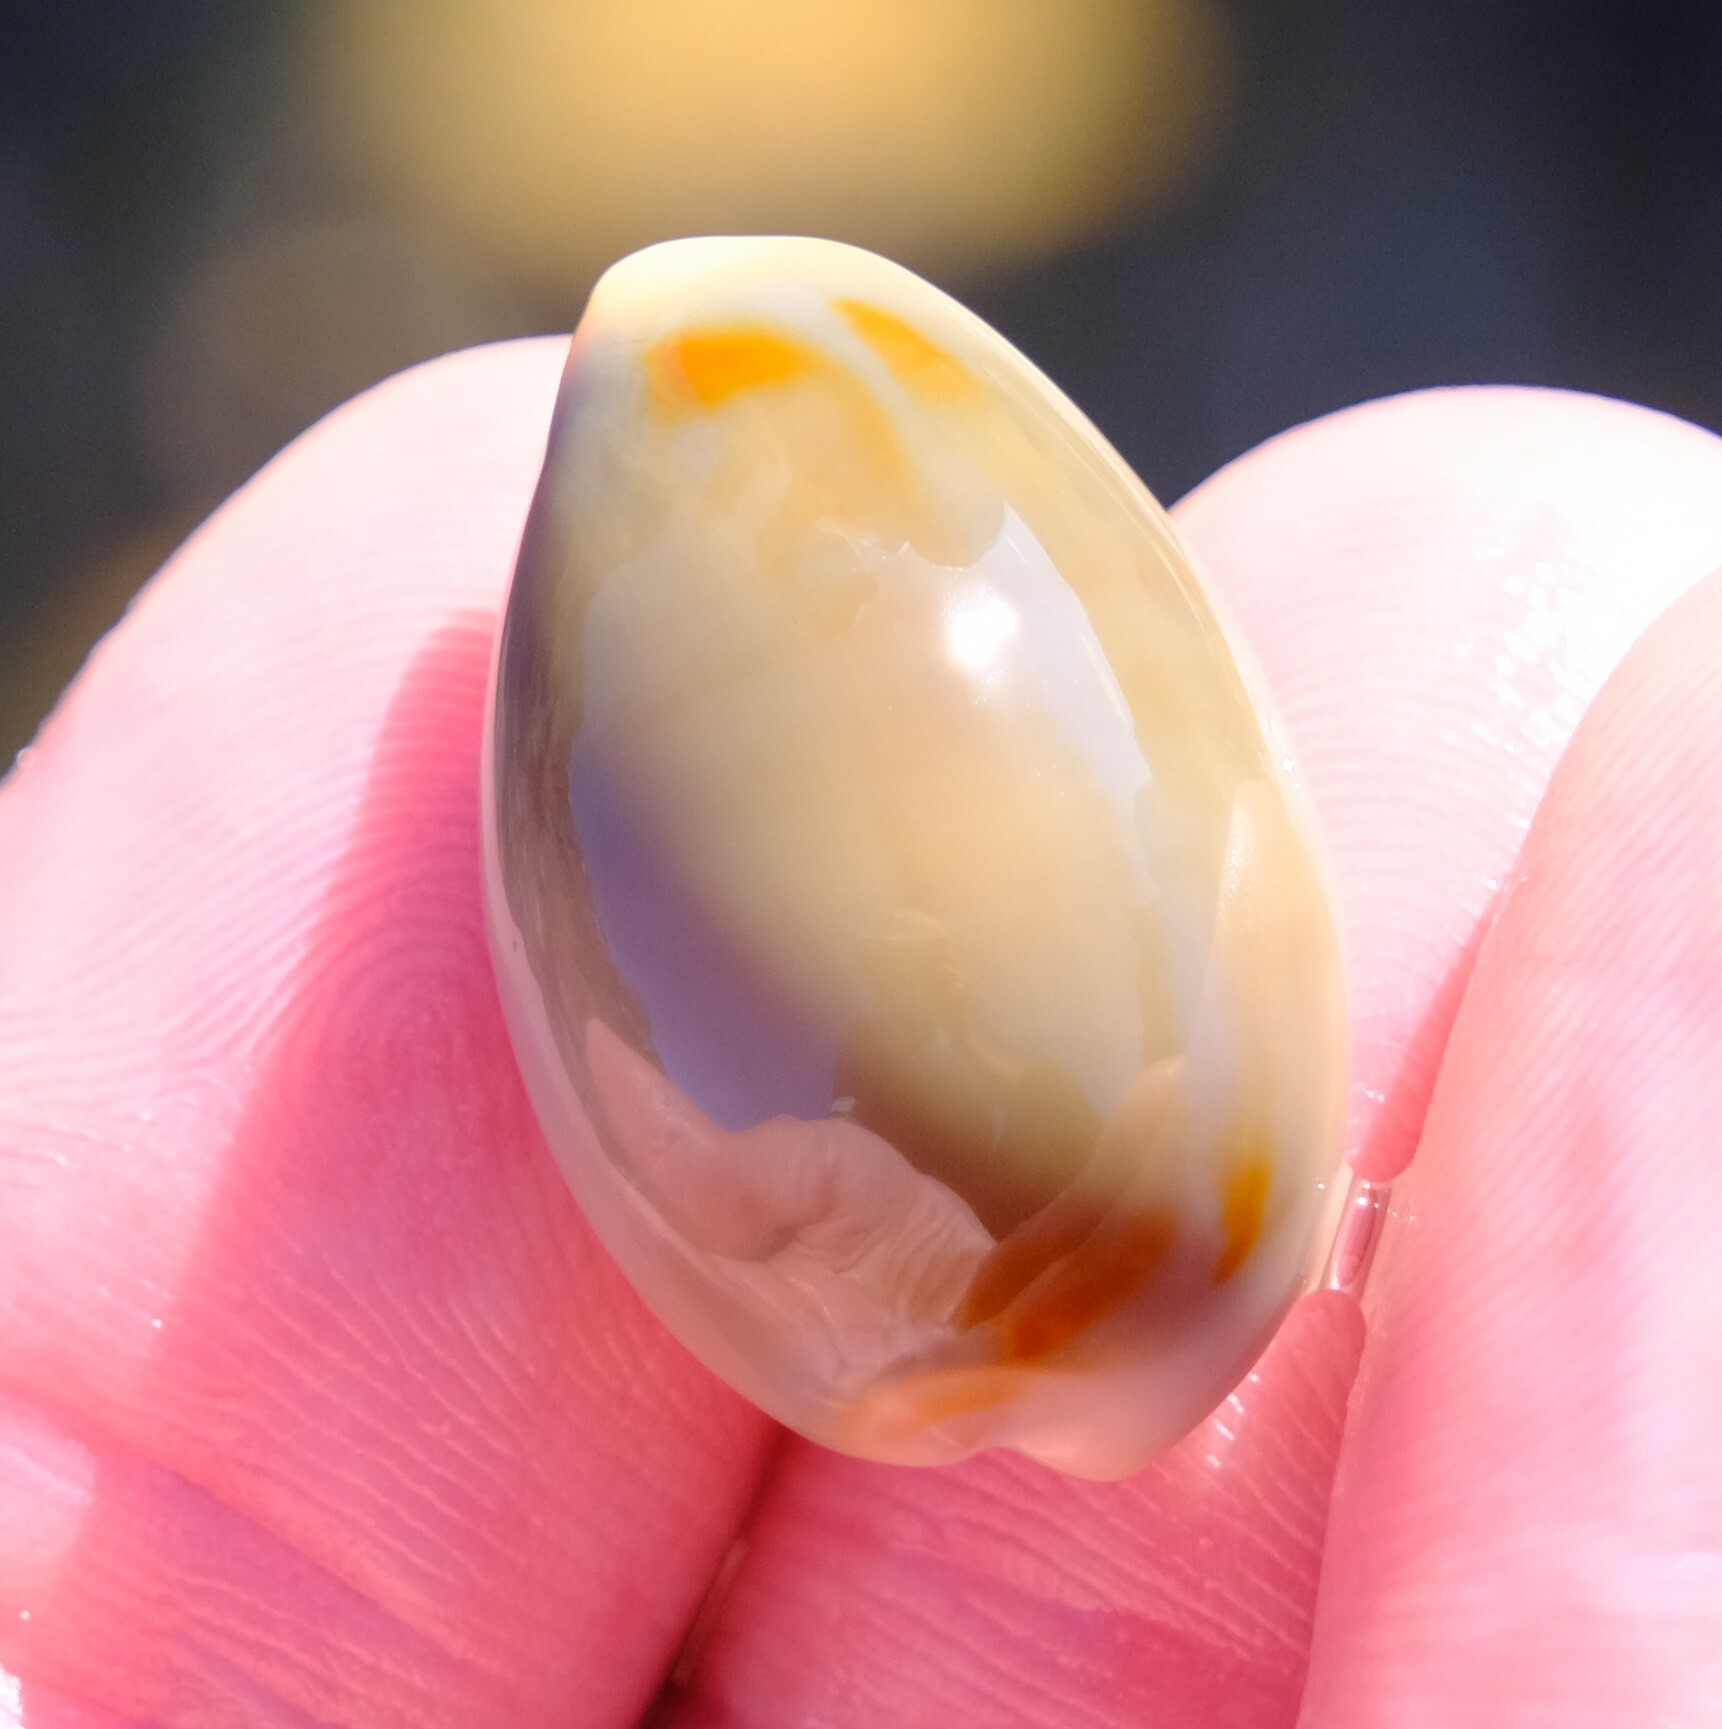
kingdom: Animalia
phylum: Mollusca
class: Gastropoda
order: Littorinimorpha
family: Cypraeidae
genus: Monetaria
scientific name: Monetaria annulus
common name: Ring cowrie
